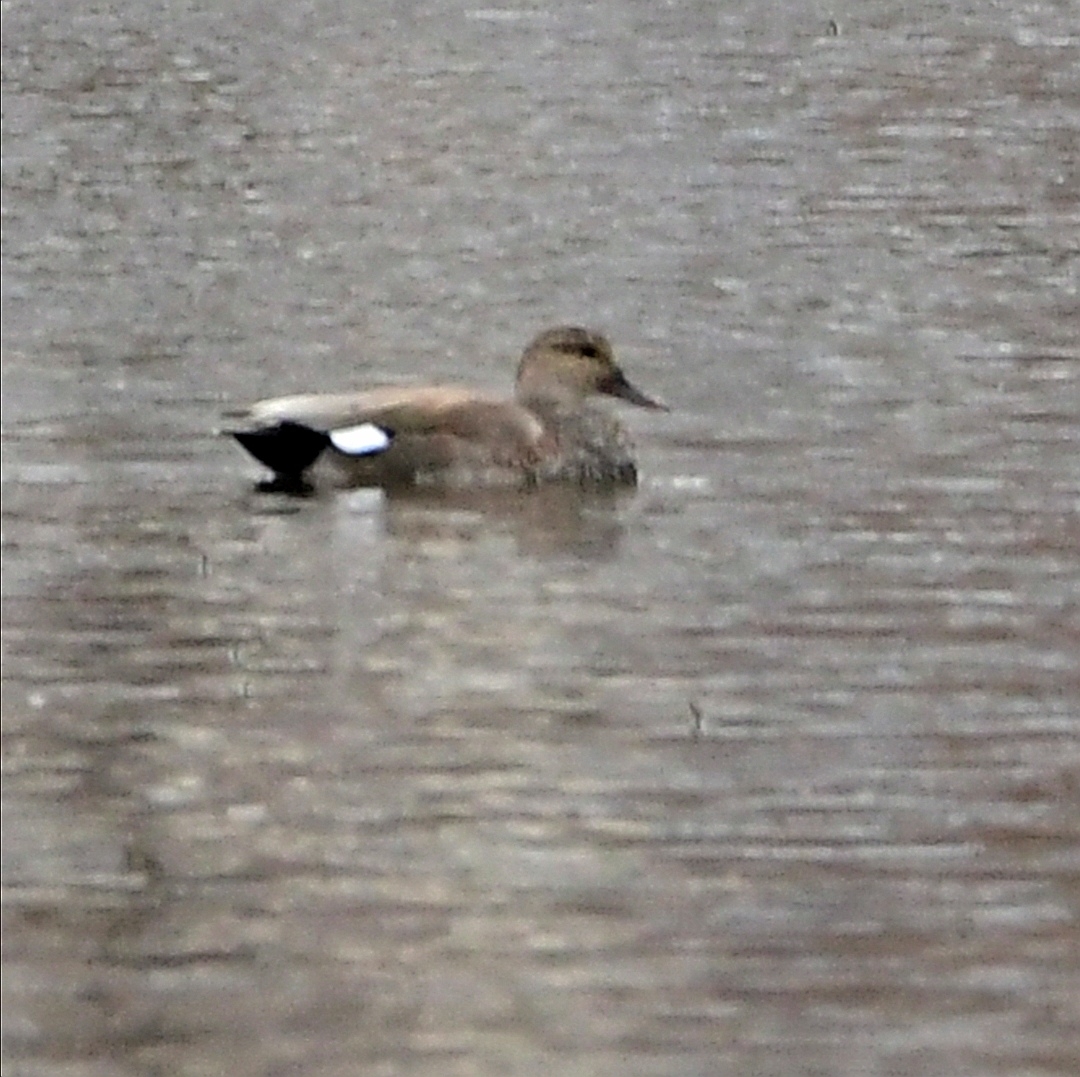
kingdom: Animalia
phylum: Chordata
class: Aves
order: Anseriformes
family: Anatidae
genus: Mareca
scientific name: Mareca strepera
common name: Gadwall
